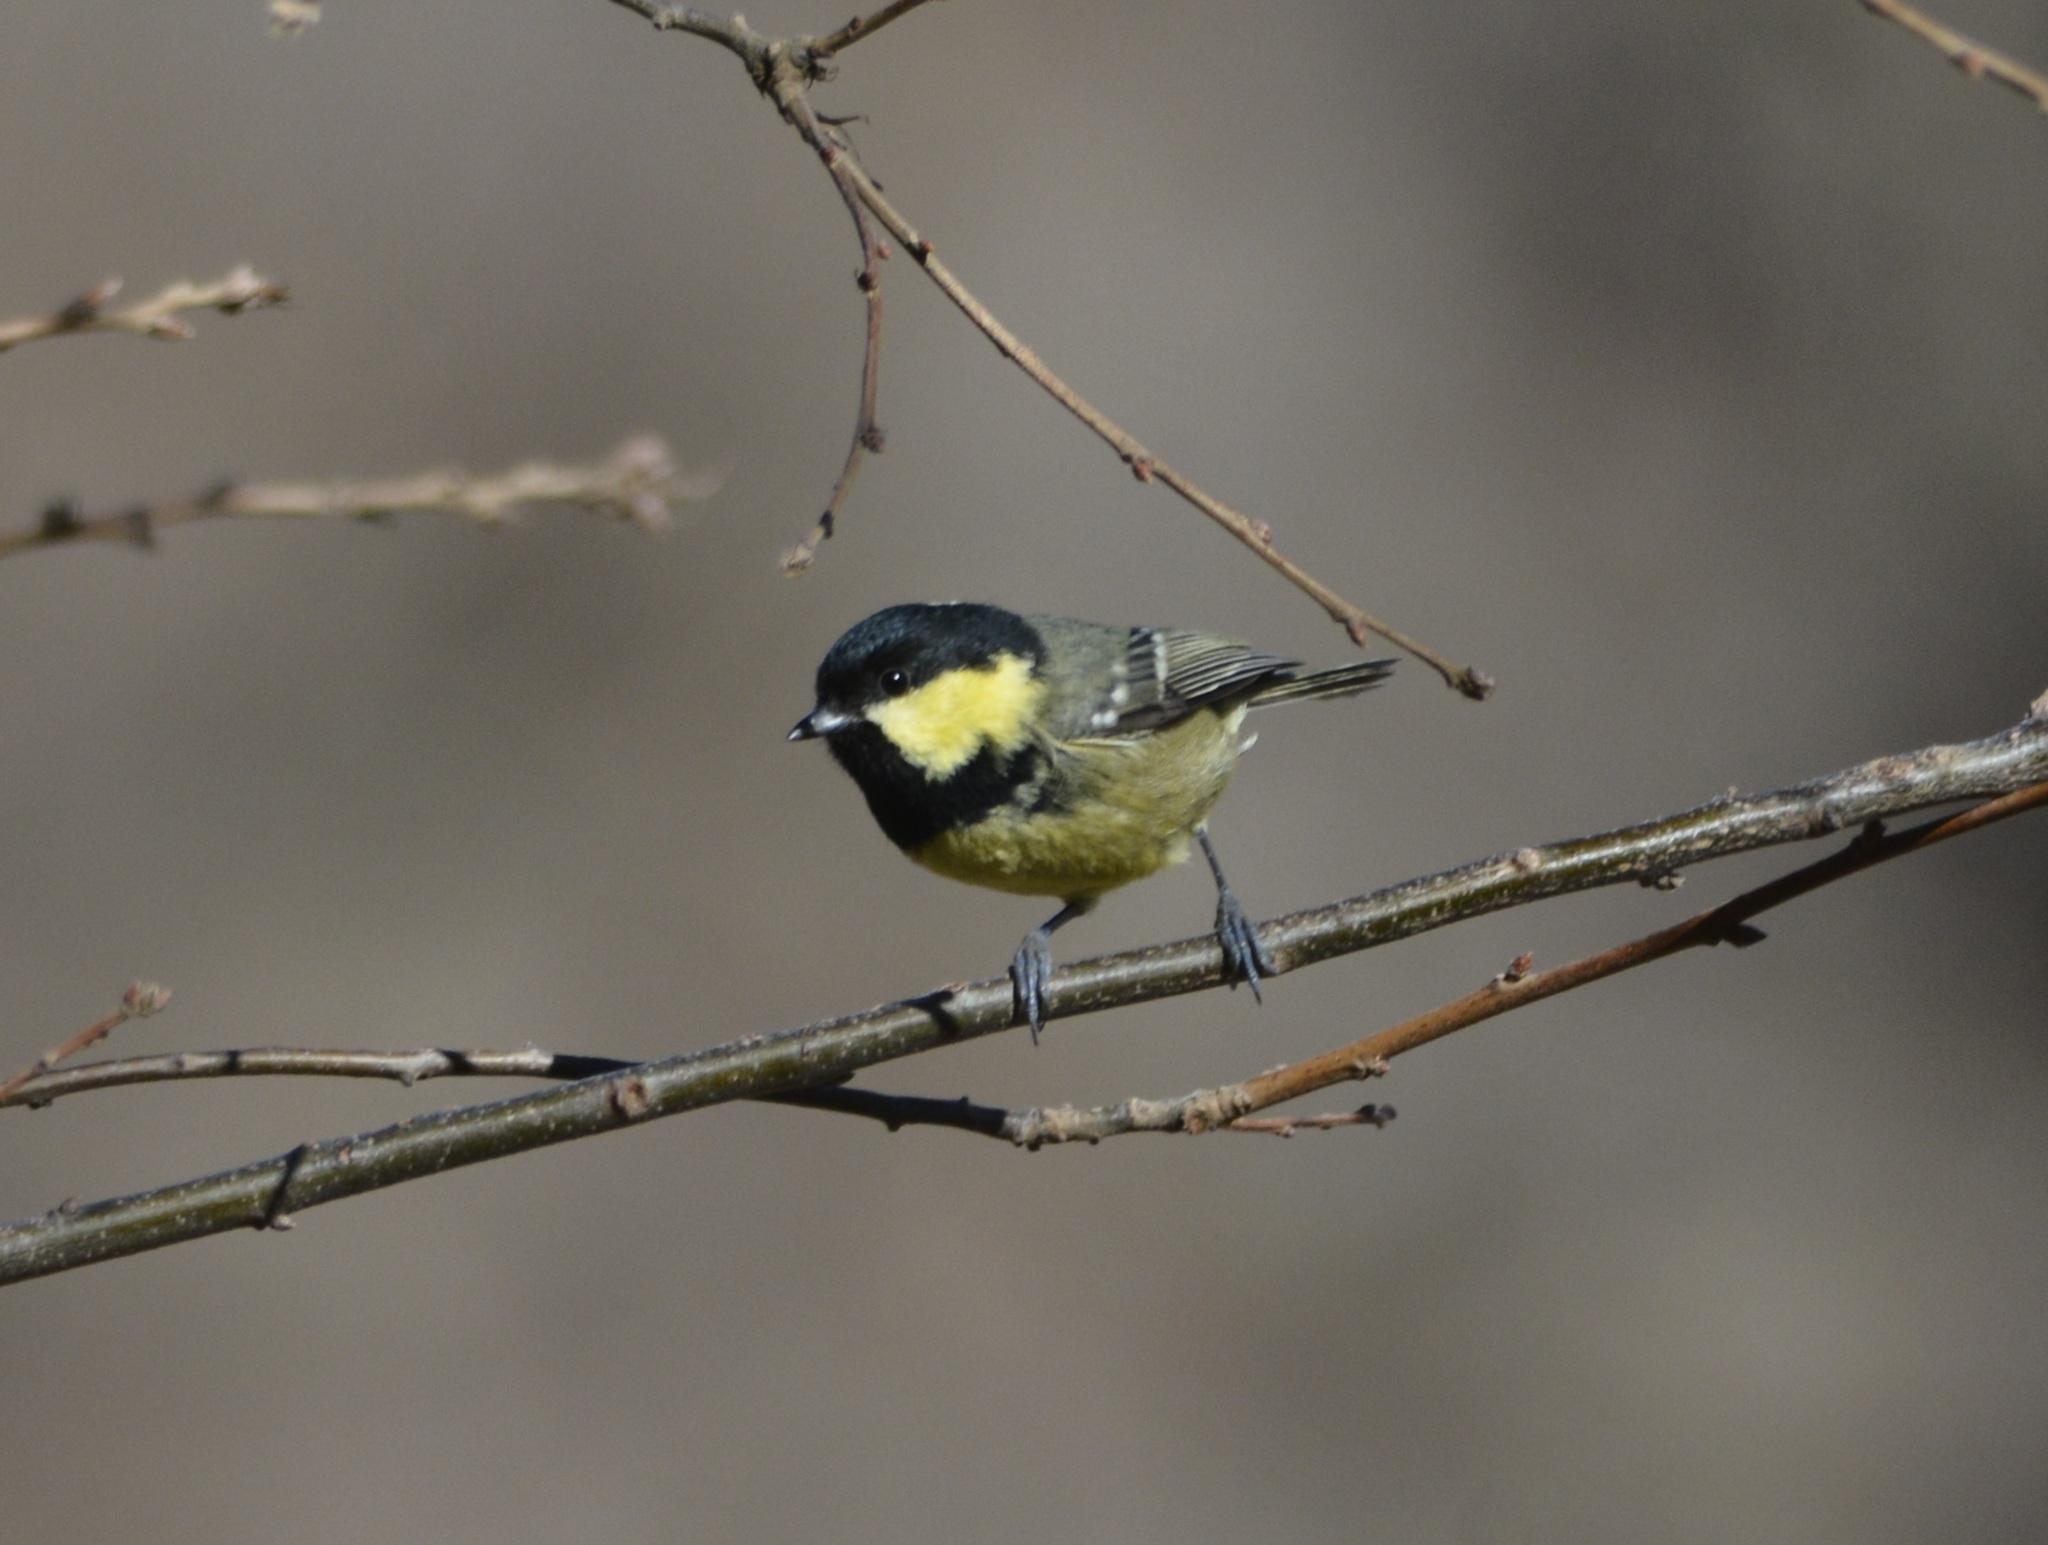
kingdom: Animalia
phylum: Chordata
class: Aves
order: Passeriformes
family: Paridae
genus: Periparus
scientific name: Periparus ater
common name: Coal tit
